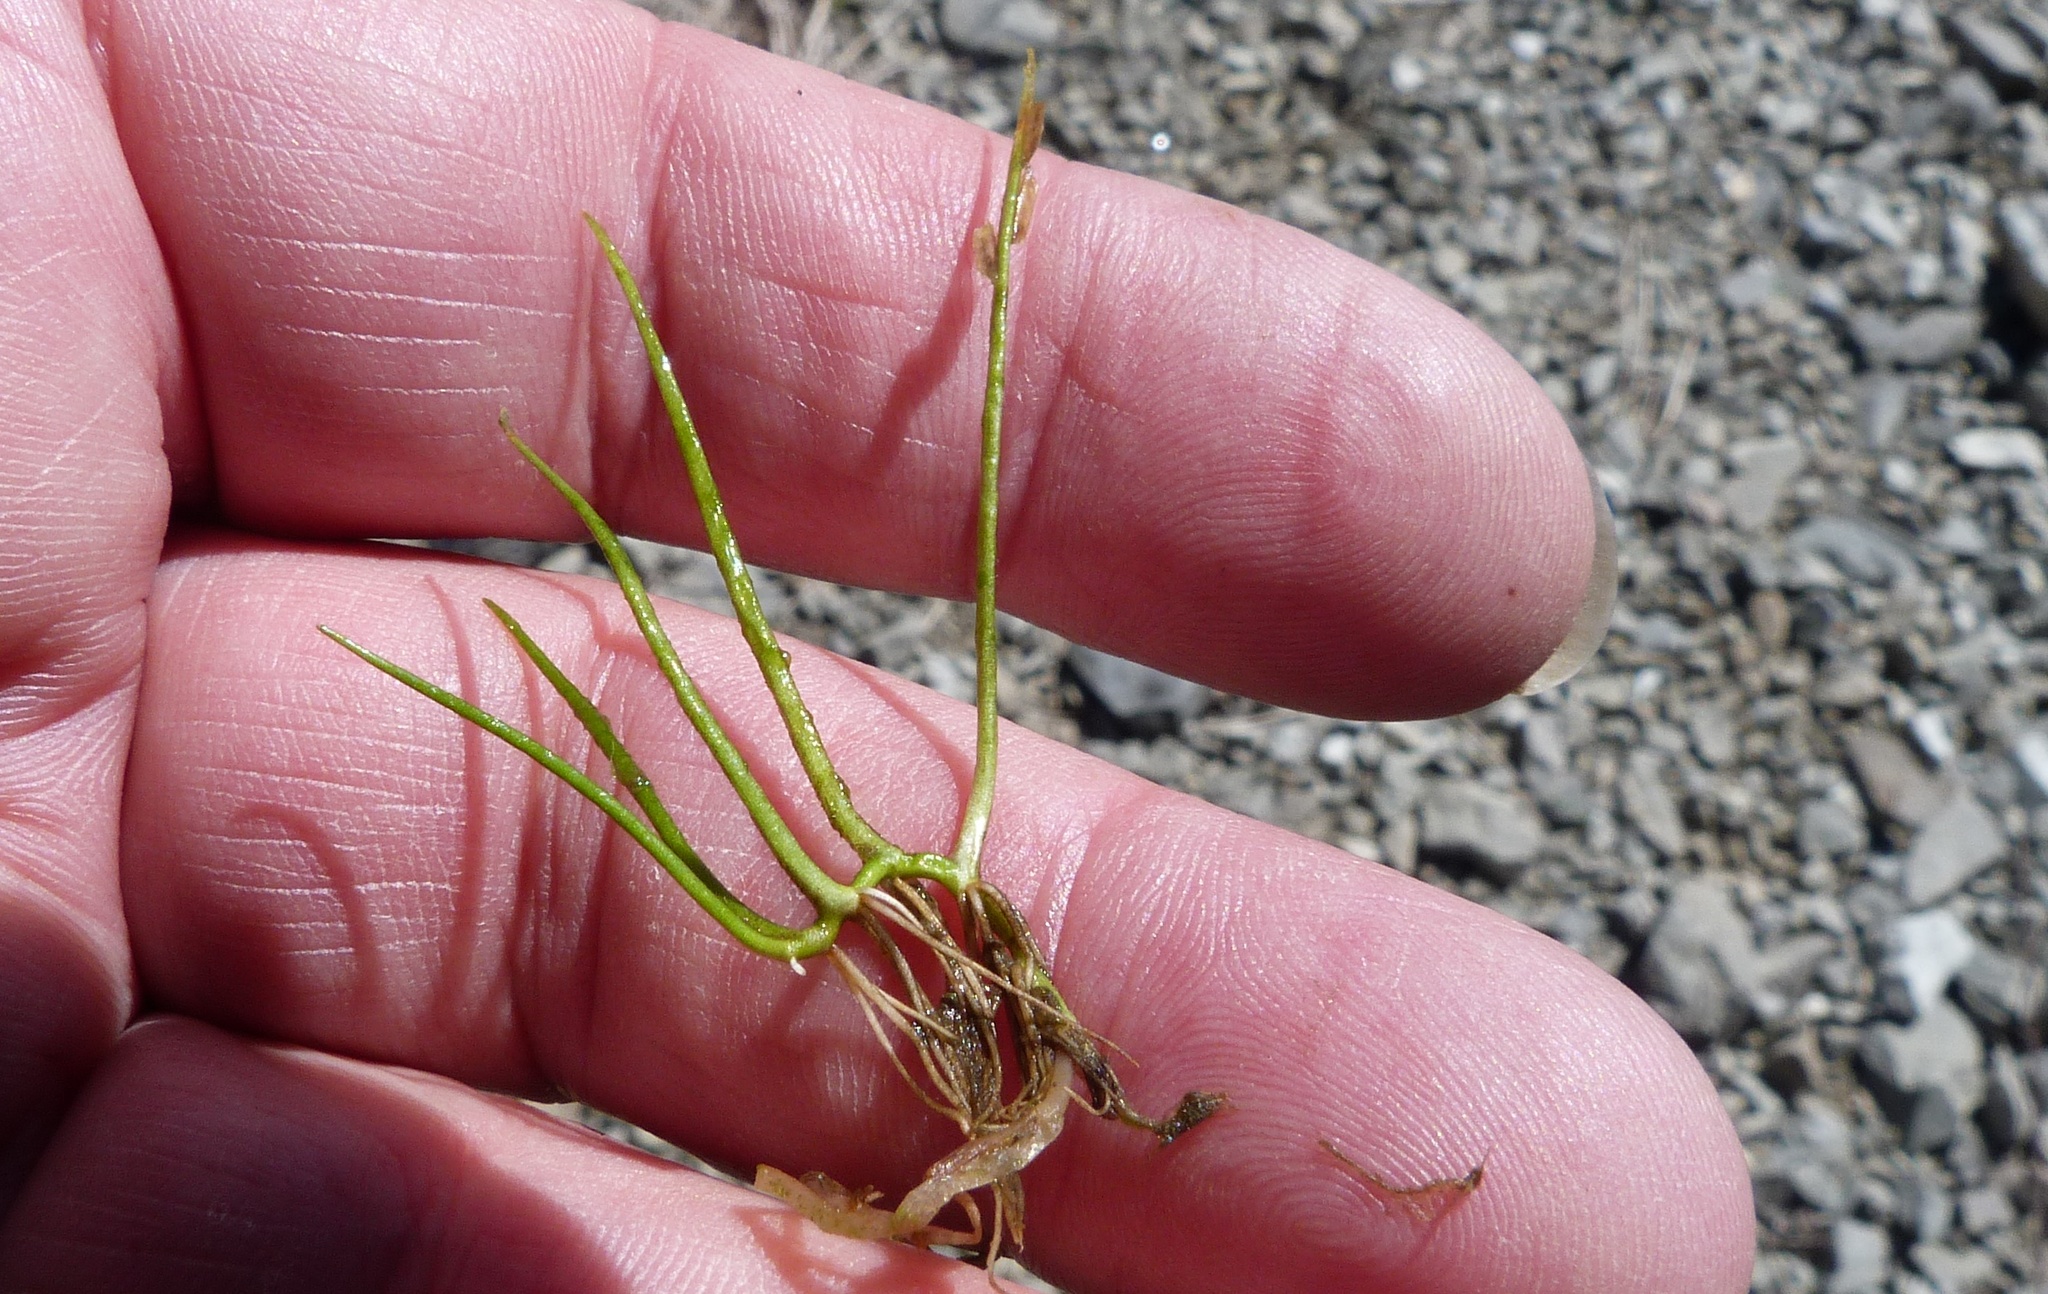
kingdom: Plantae
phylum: Tracheophyta
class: Polypodiopsida
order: Salviniales
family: Marsileaceae
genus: Pilularia
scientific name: Pilularia novae-hollandiae
